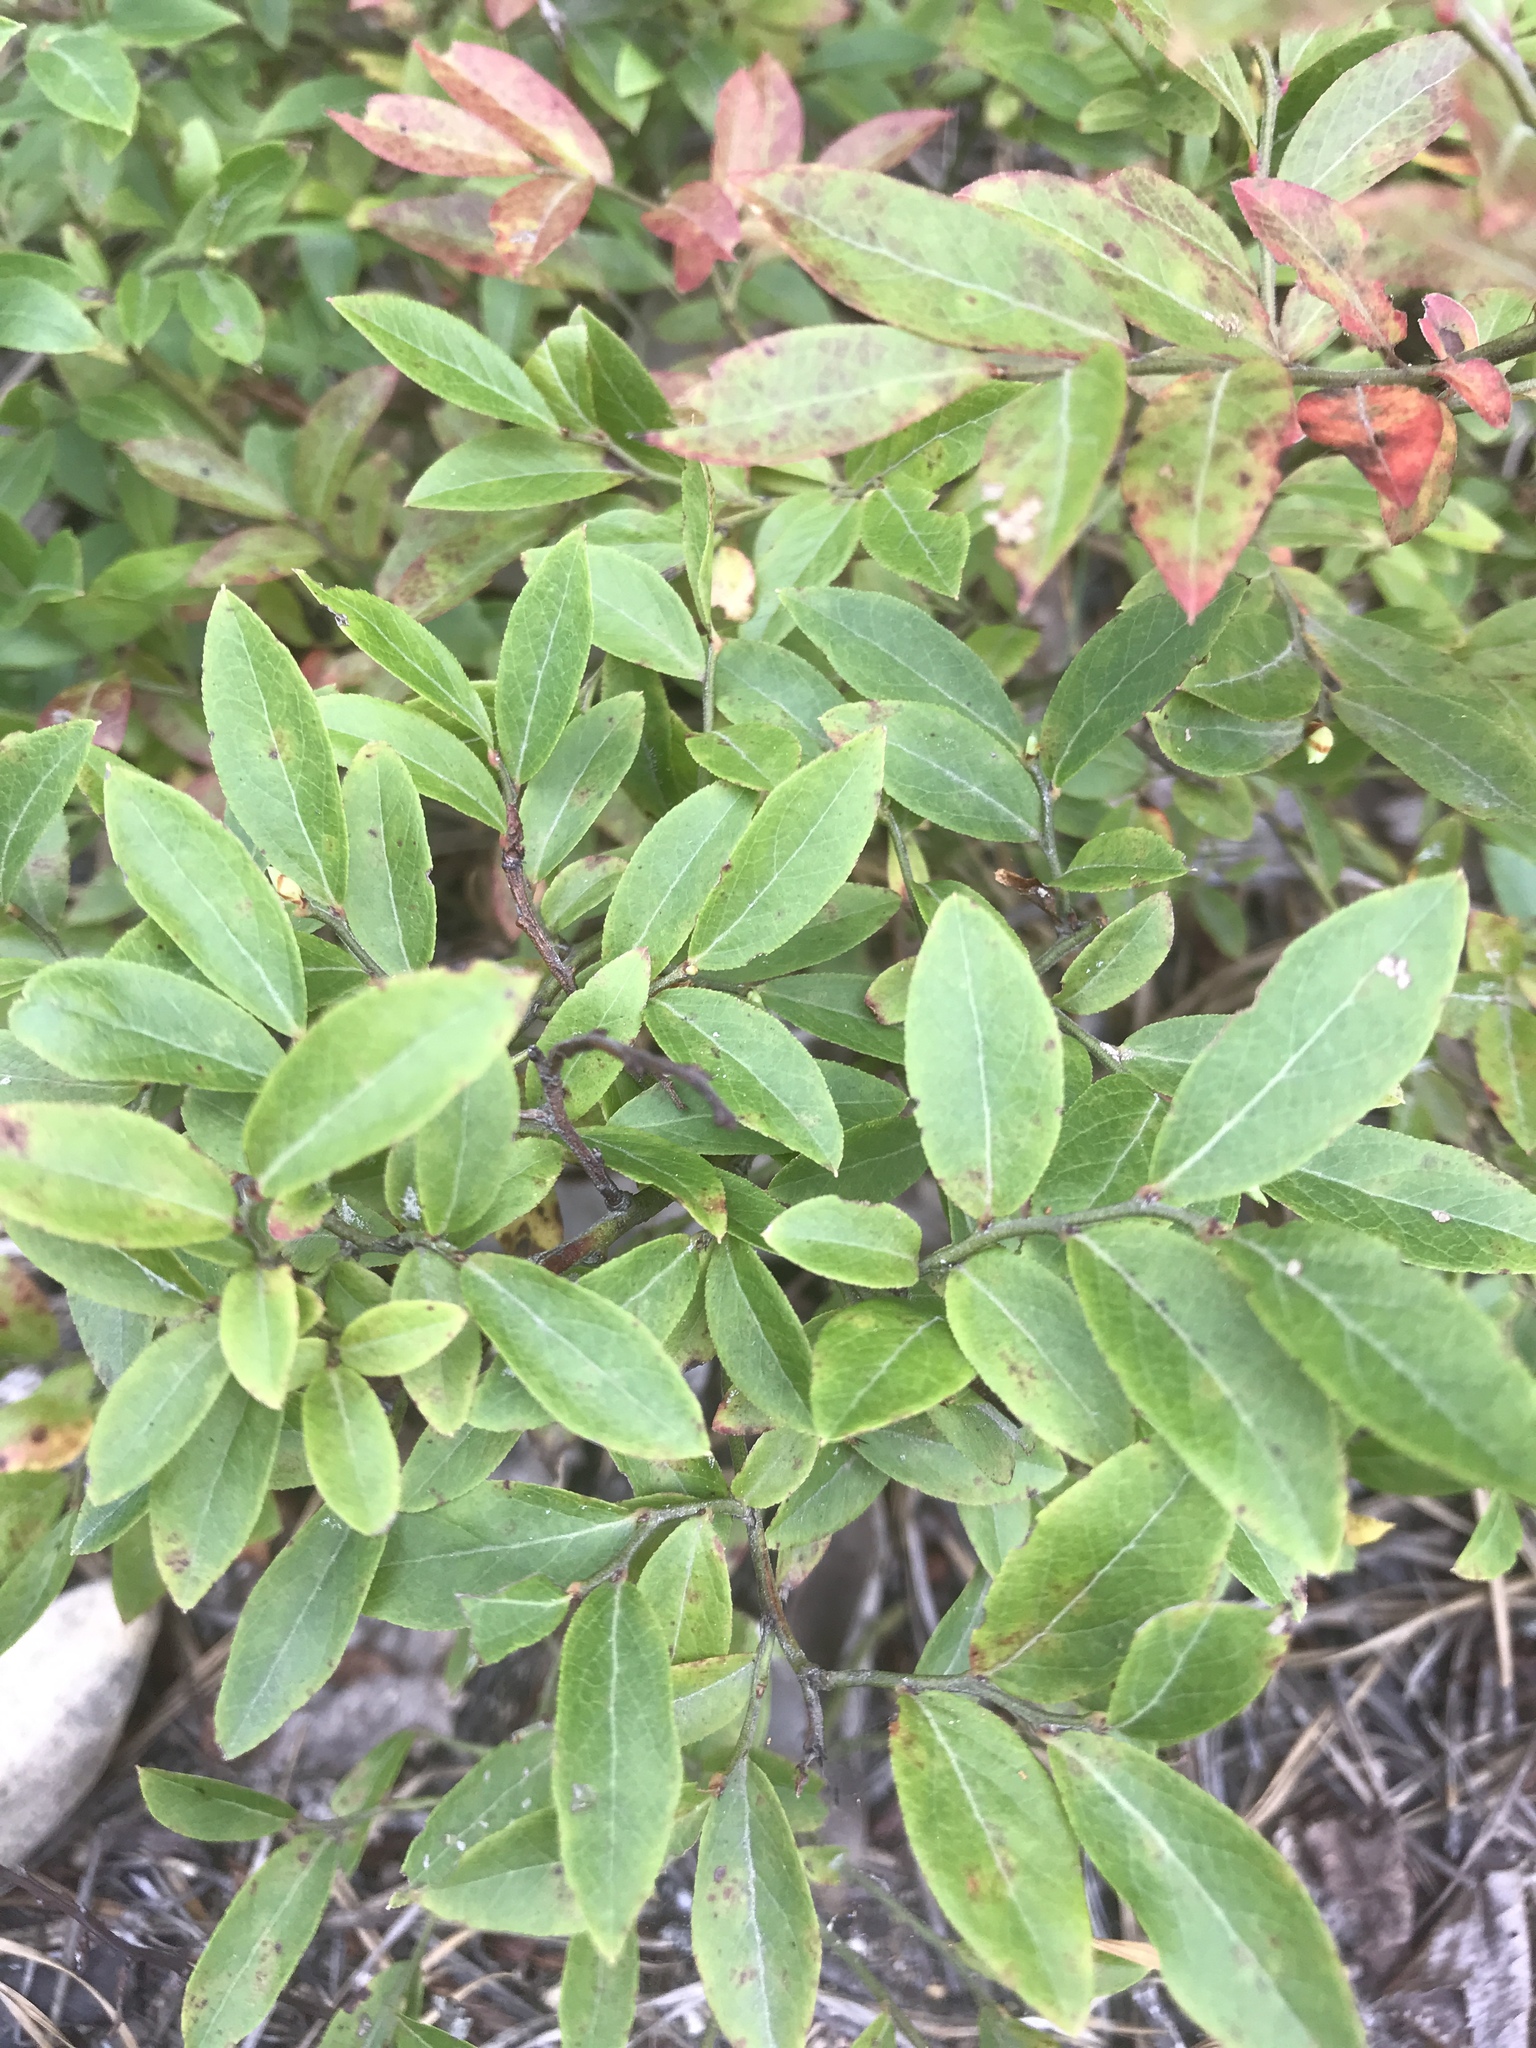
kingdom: Plantae
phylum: Tracheophyta
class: Magnoliopsida
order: Ericales
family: Ericaceae
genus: Vaccinium
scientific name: Vaccinium angustifolium
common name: Early lowbush blueberry
